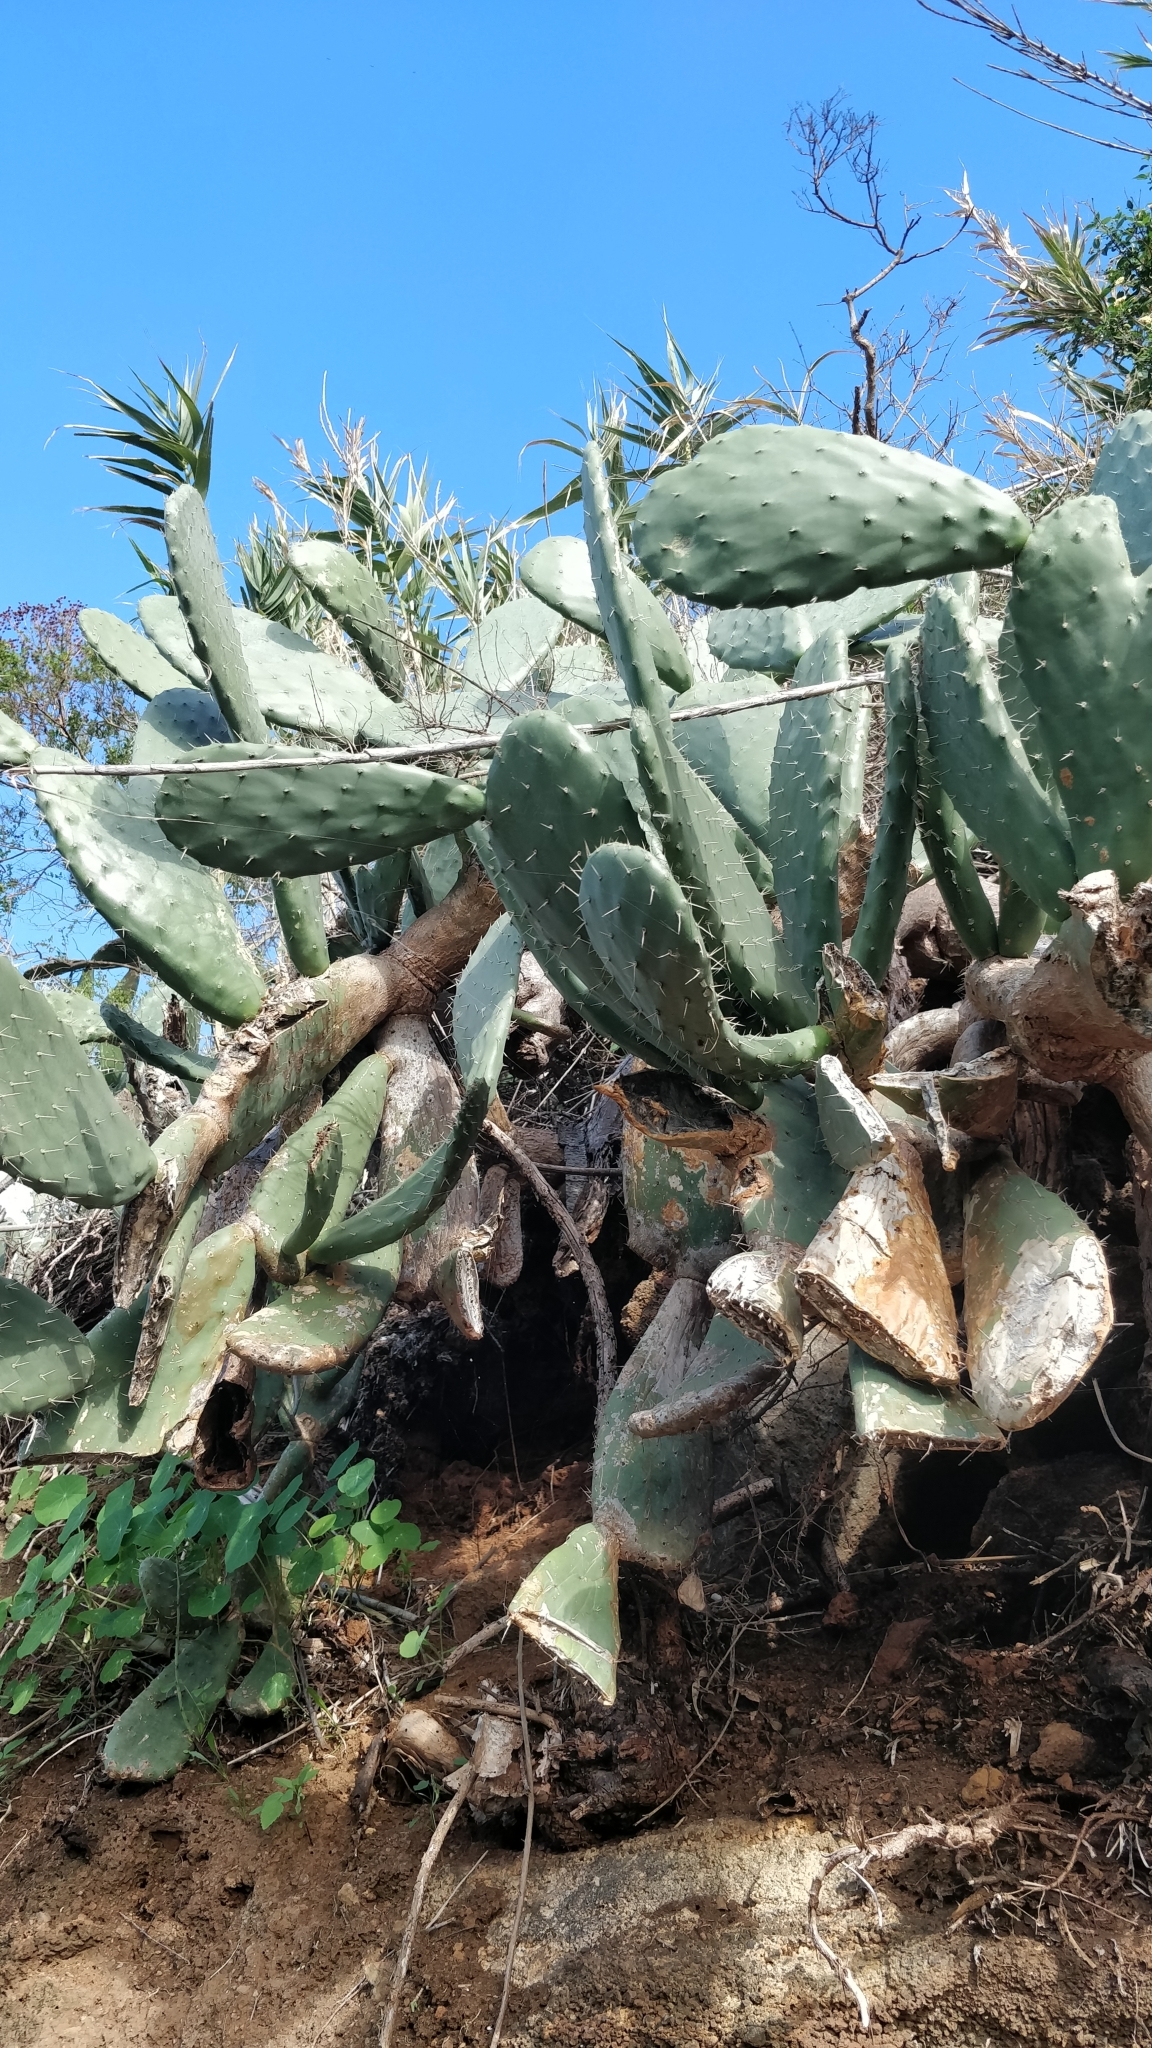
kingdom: Plantae
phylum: Tracheophyta
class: Magnoliopsida
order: Caryophyllales
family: Cactaceae
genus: Opuntia
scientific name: Opuntia ficus-indica
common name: Barbary fig
